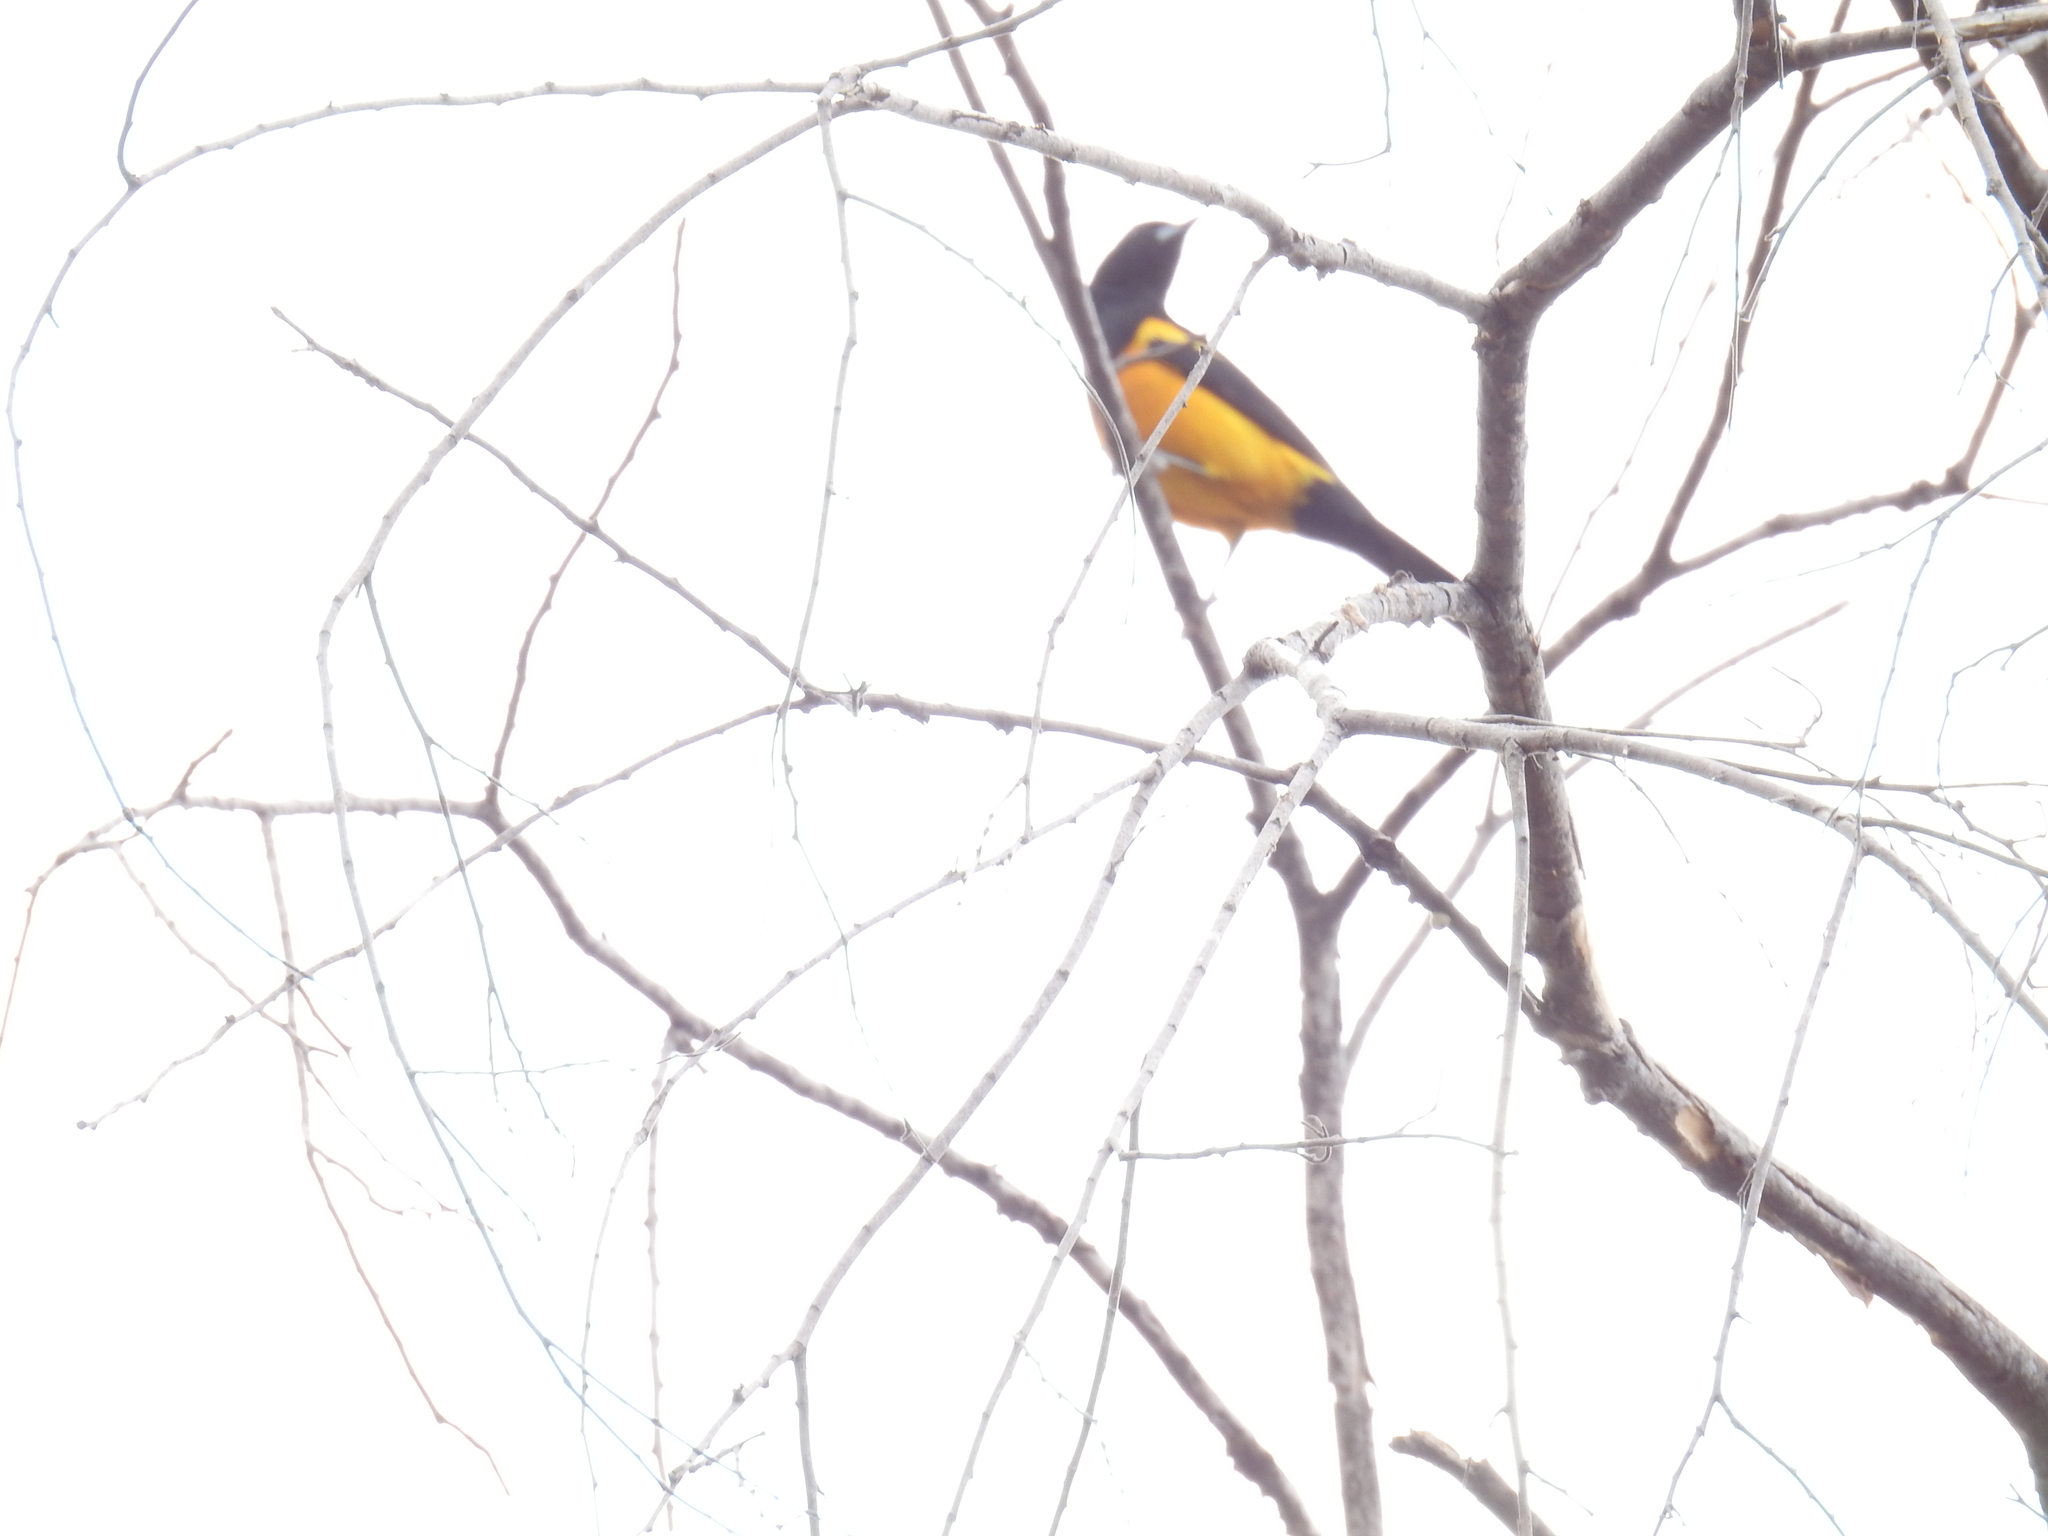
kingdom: Animalia
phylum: Chordata
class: Aves
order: Passeriformes
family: Icteridae
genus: Icterus
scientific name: Icterus wagleri
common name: Black-vented oriole
